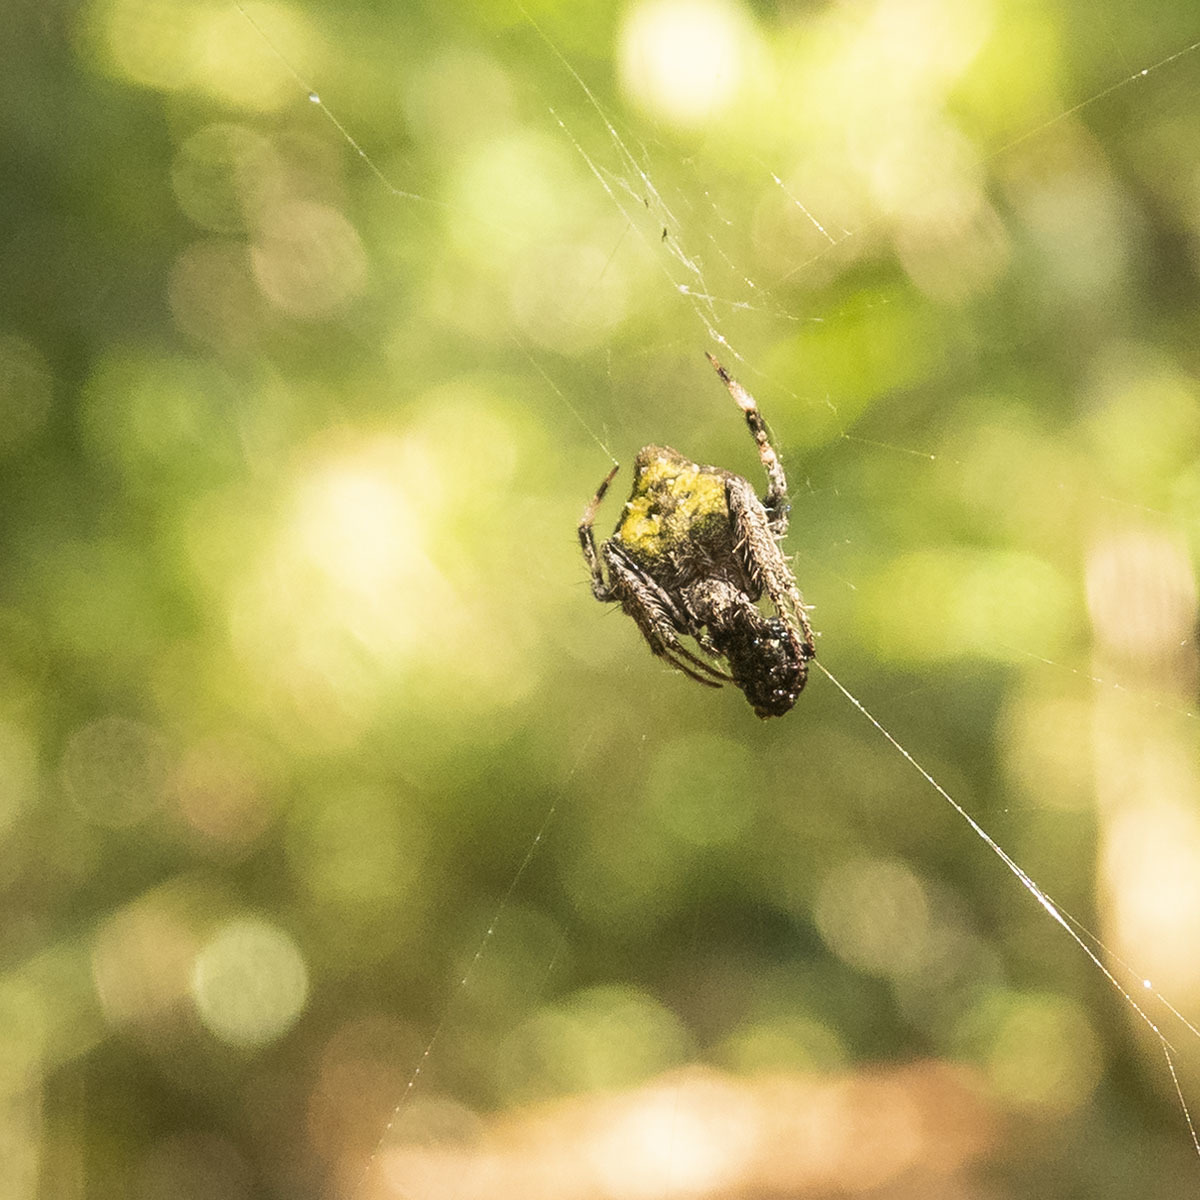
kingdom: Animalia
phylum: Arthropoda
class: Arachnida
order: Araneae
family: Araneidae
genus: Eriovixia
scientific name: Eriovixia laglaizei
